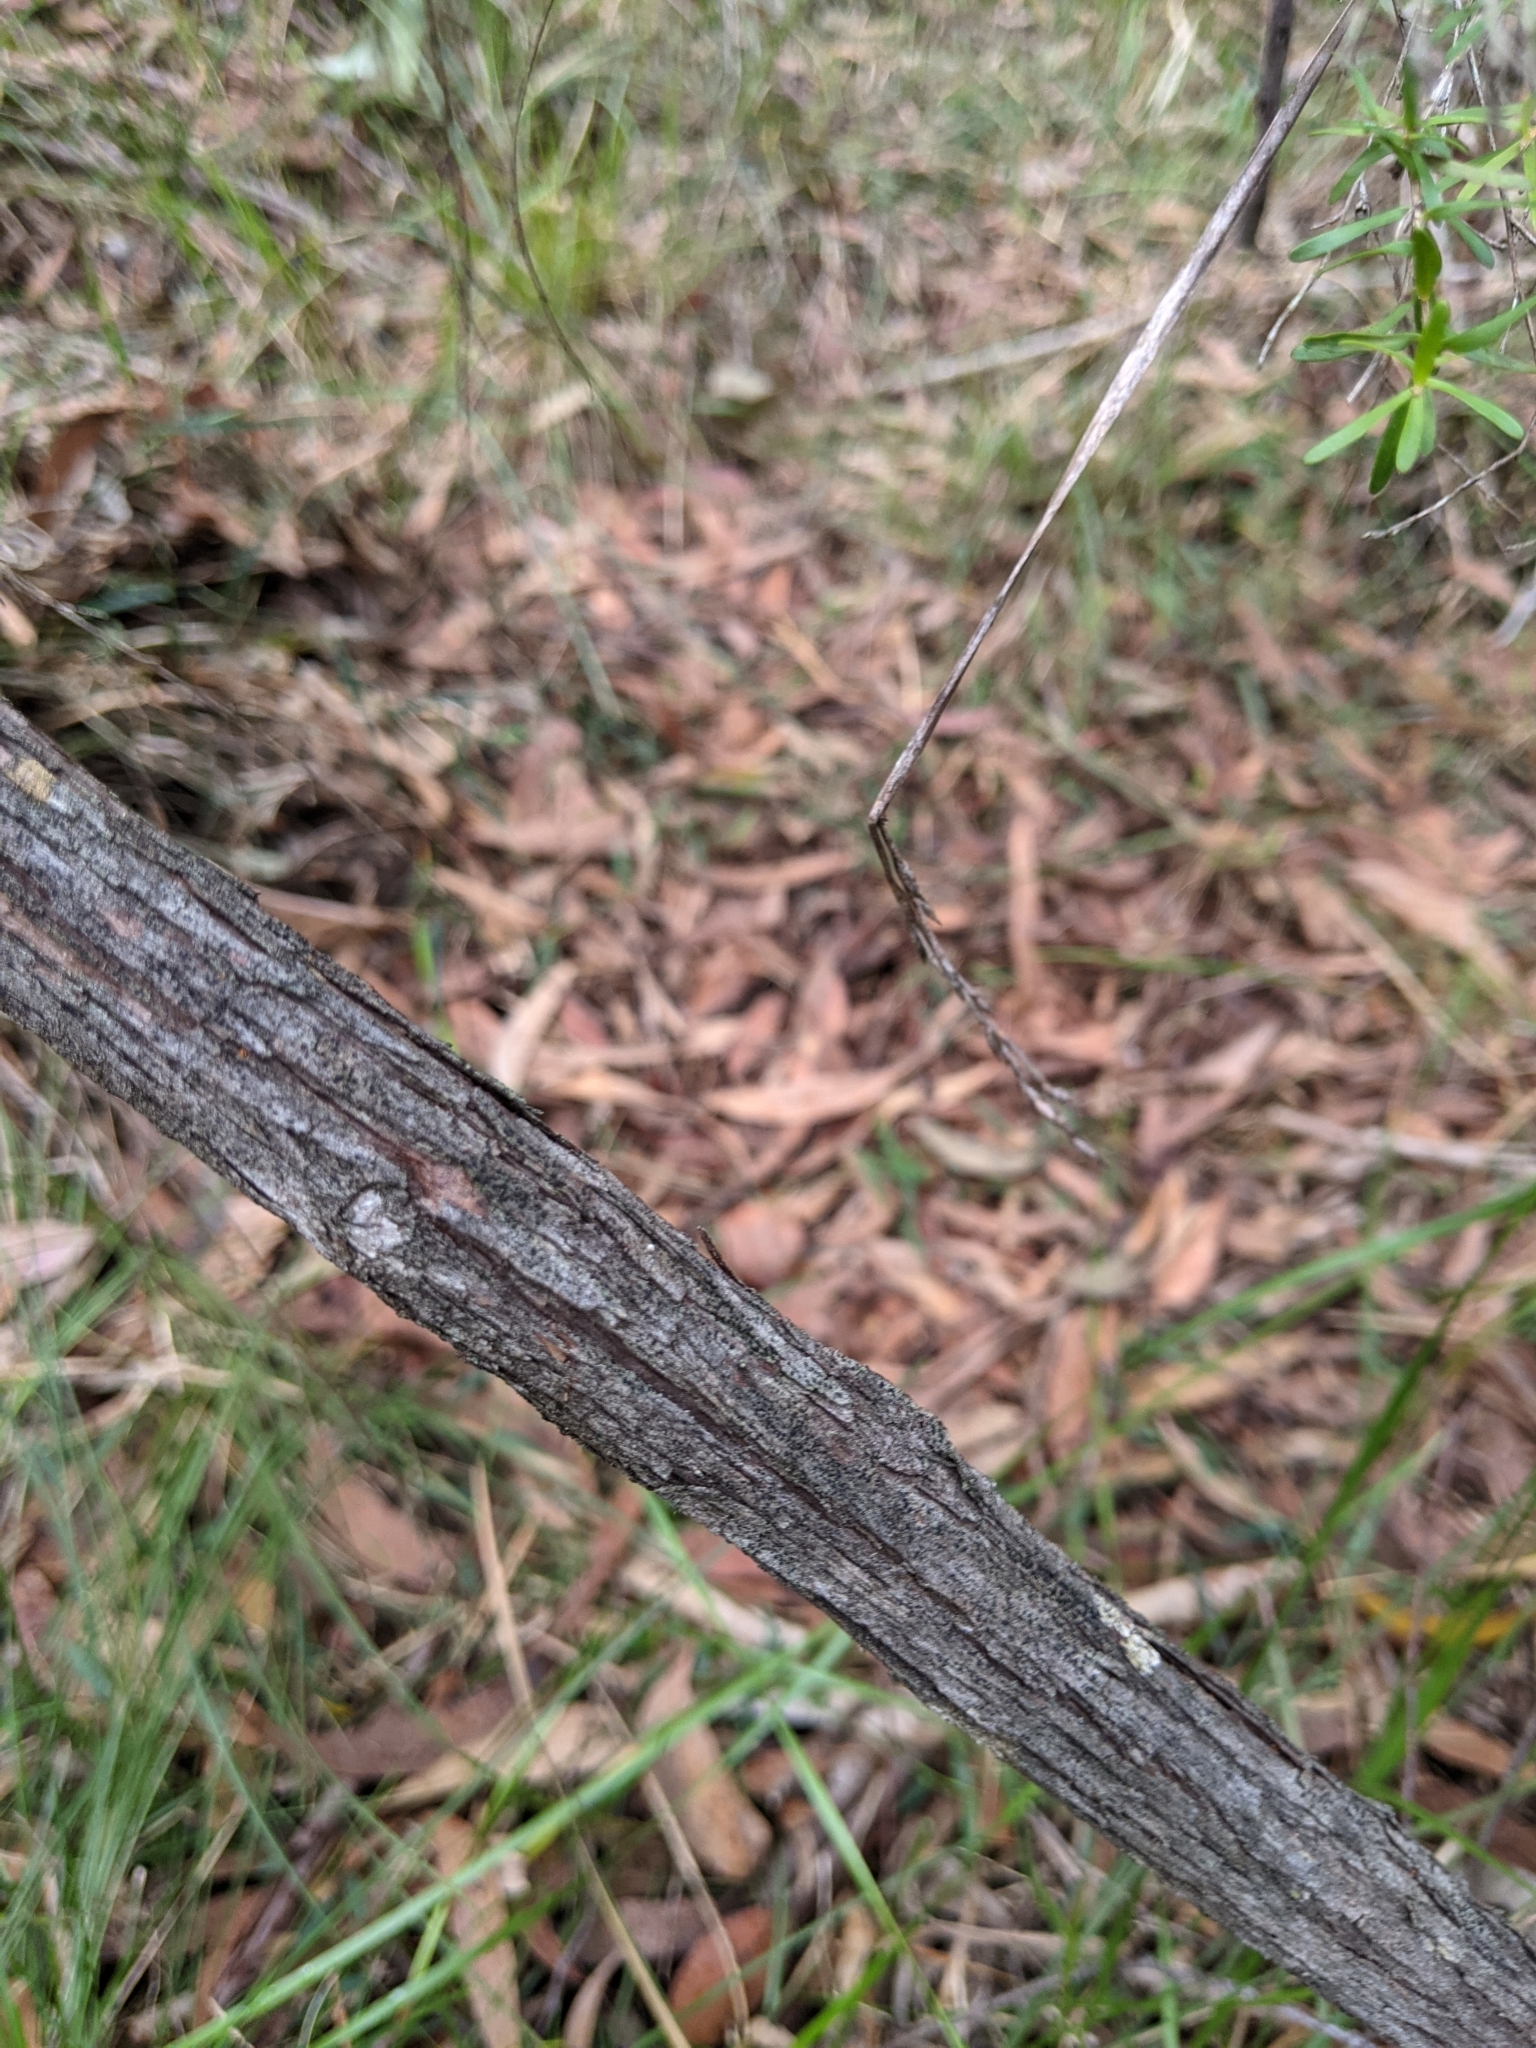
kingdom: Plantae
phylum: Tracheophyta
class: Magnoliopsida
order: Myrtales
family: Myrtaceae
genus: Leptospermum
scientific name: Leptospermum polygalifolium
